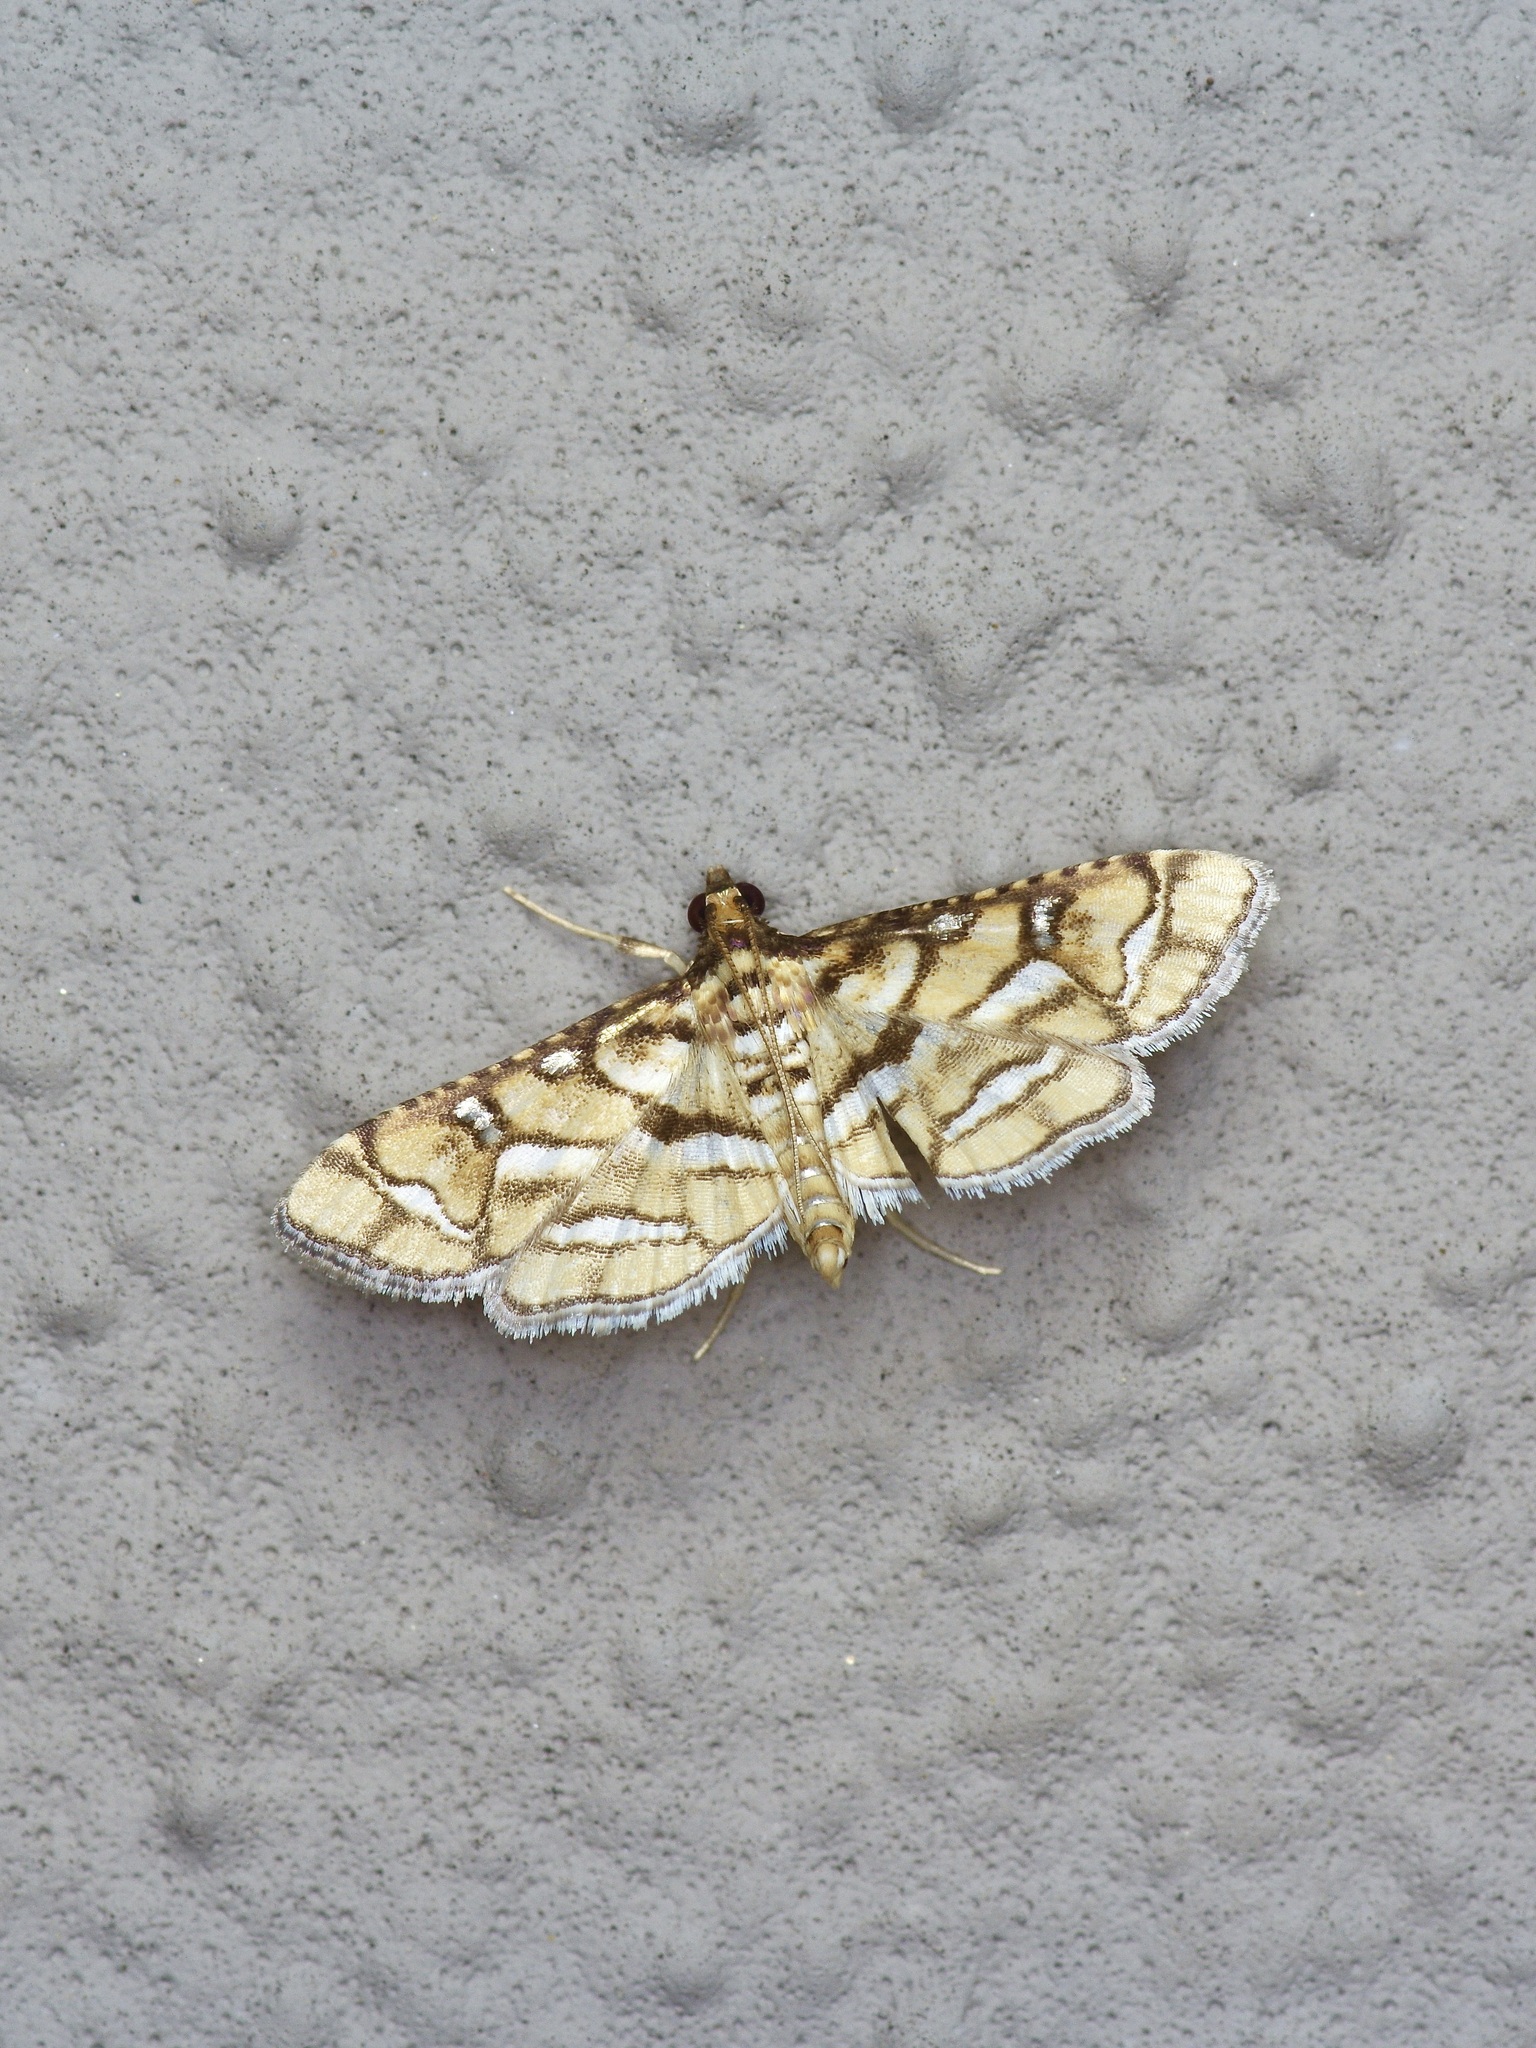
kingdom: Animalia
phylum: Arthropoda
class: Insecta
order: Lepidoptera
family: Crambidae
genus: Hileithia
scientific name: Hileithia magualis
